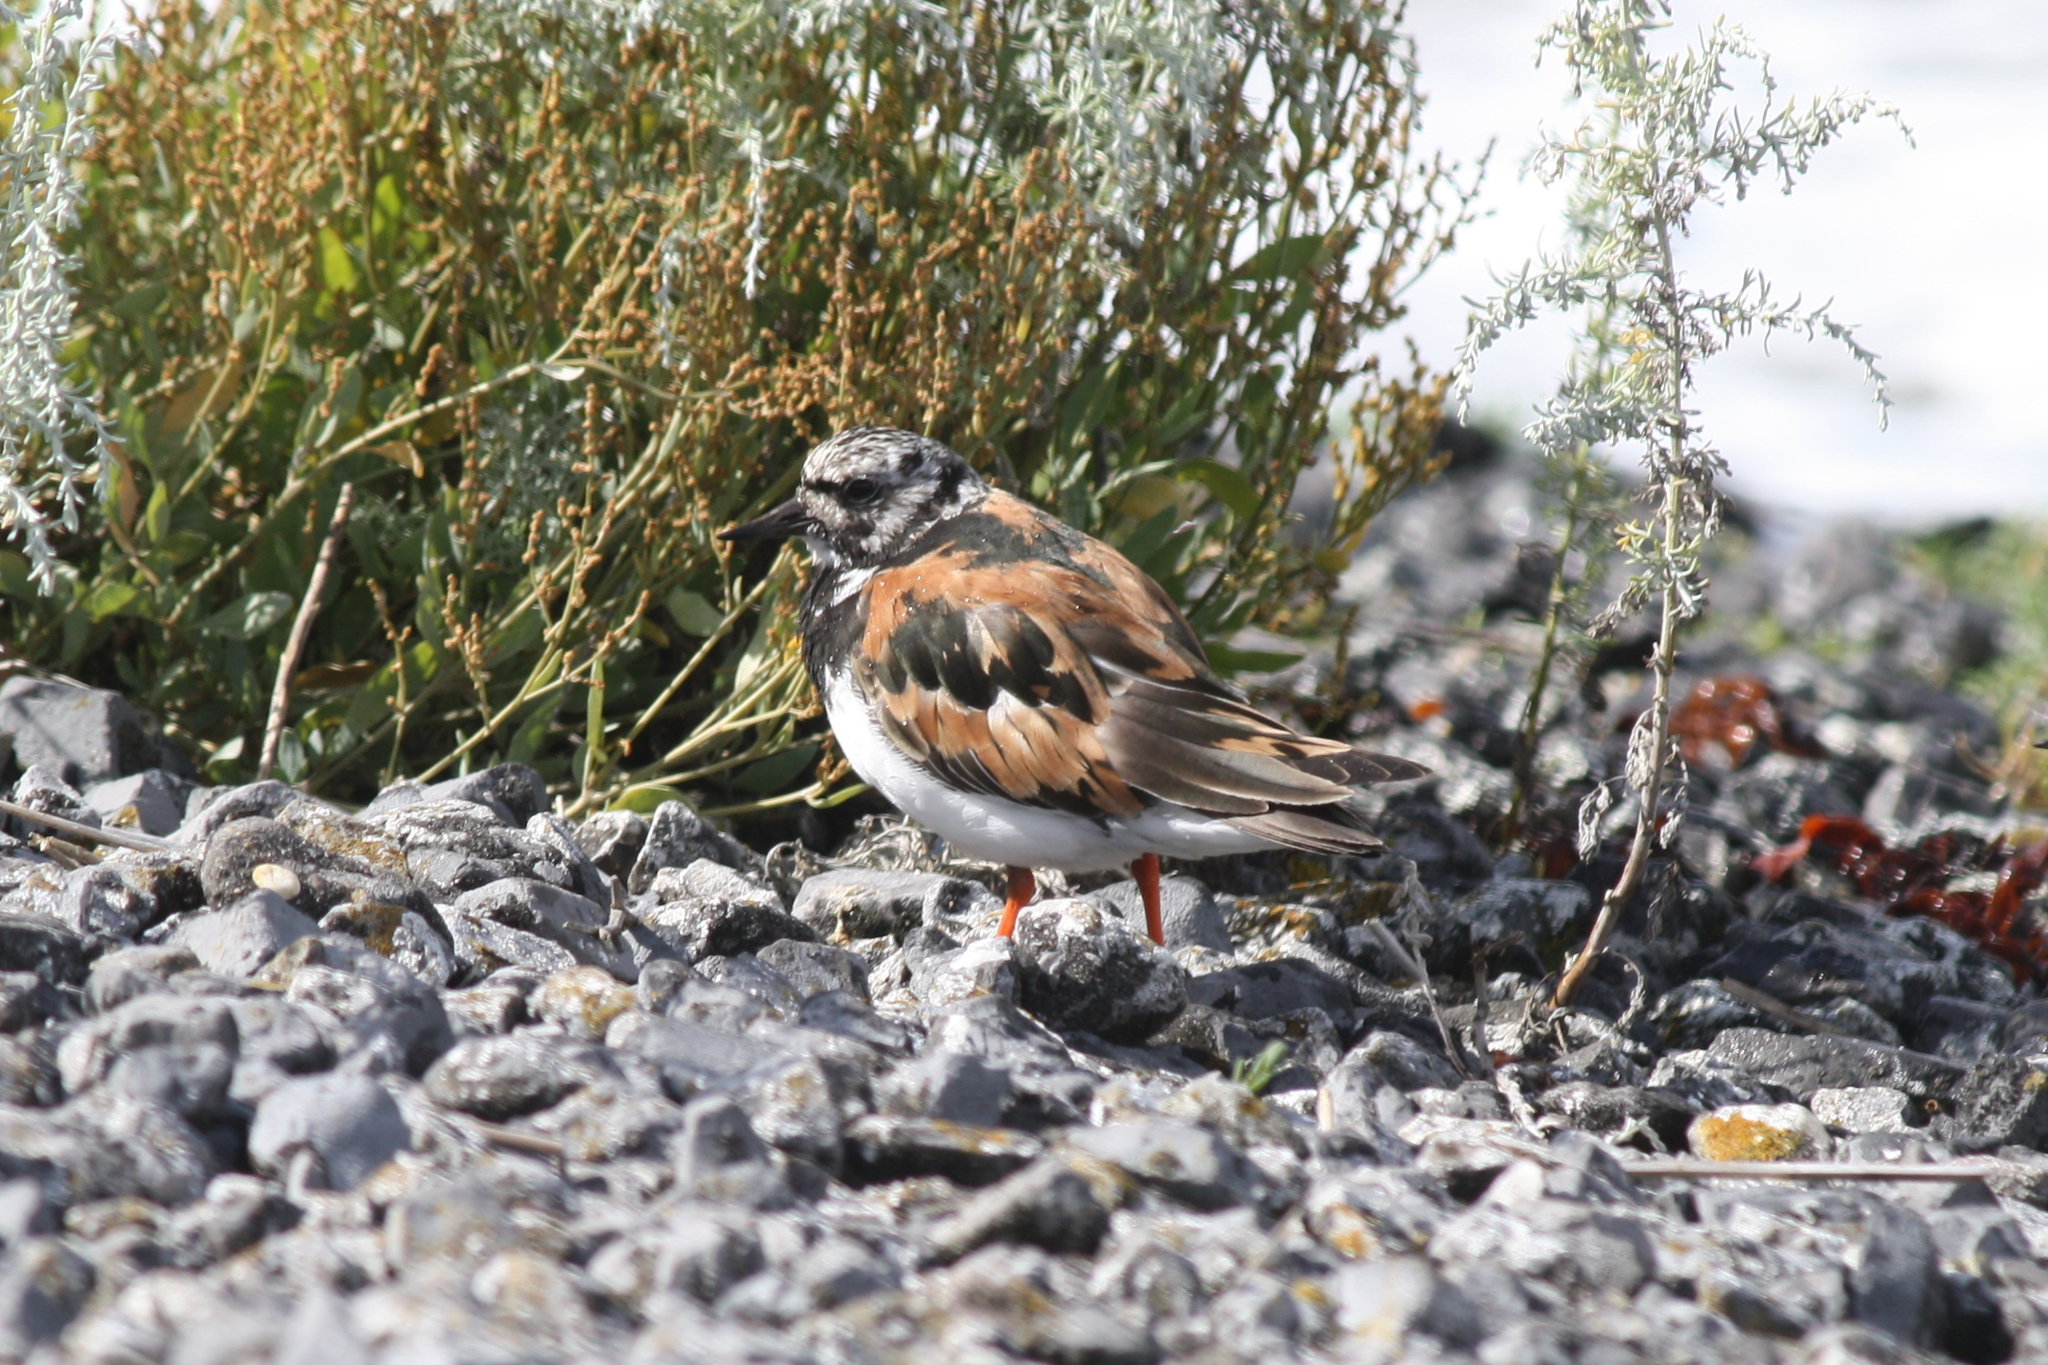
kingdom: Animalia
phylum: Chordata
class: Aves
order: Charadriiformes
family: Scolopacidae
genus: Arenaria
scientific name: Arenaria interpres
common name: Ruddy turnstone
